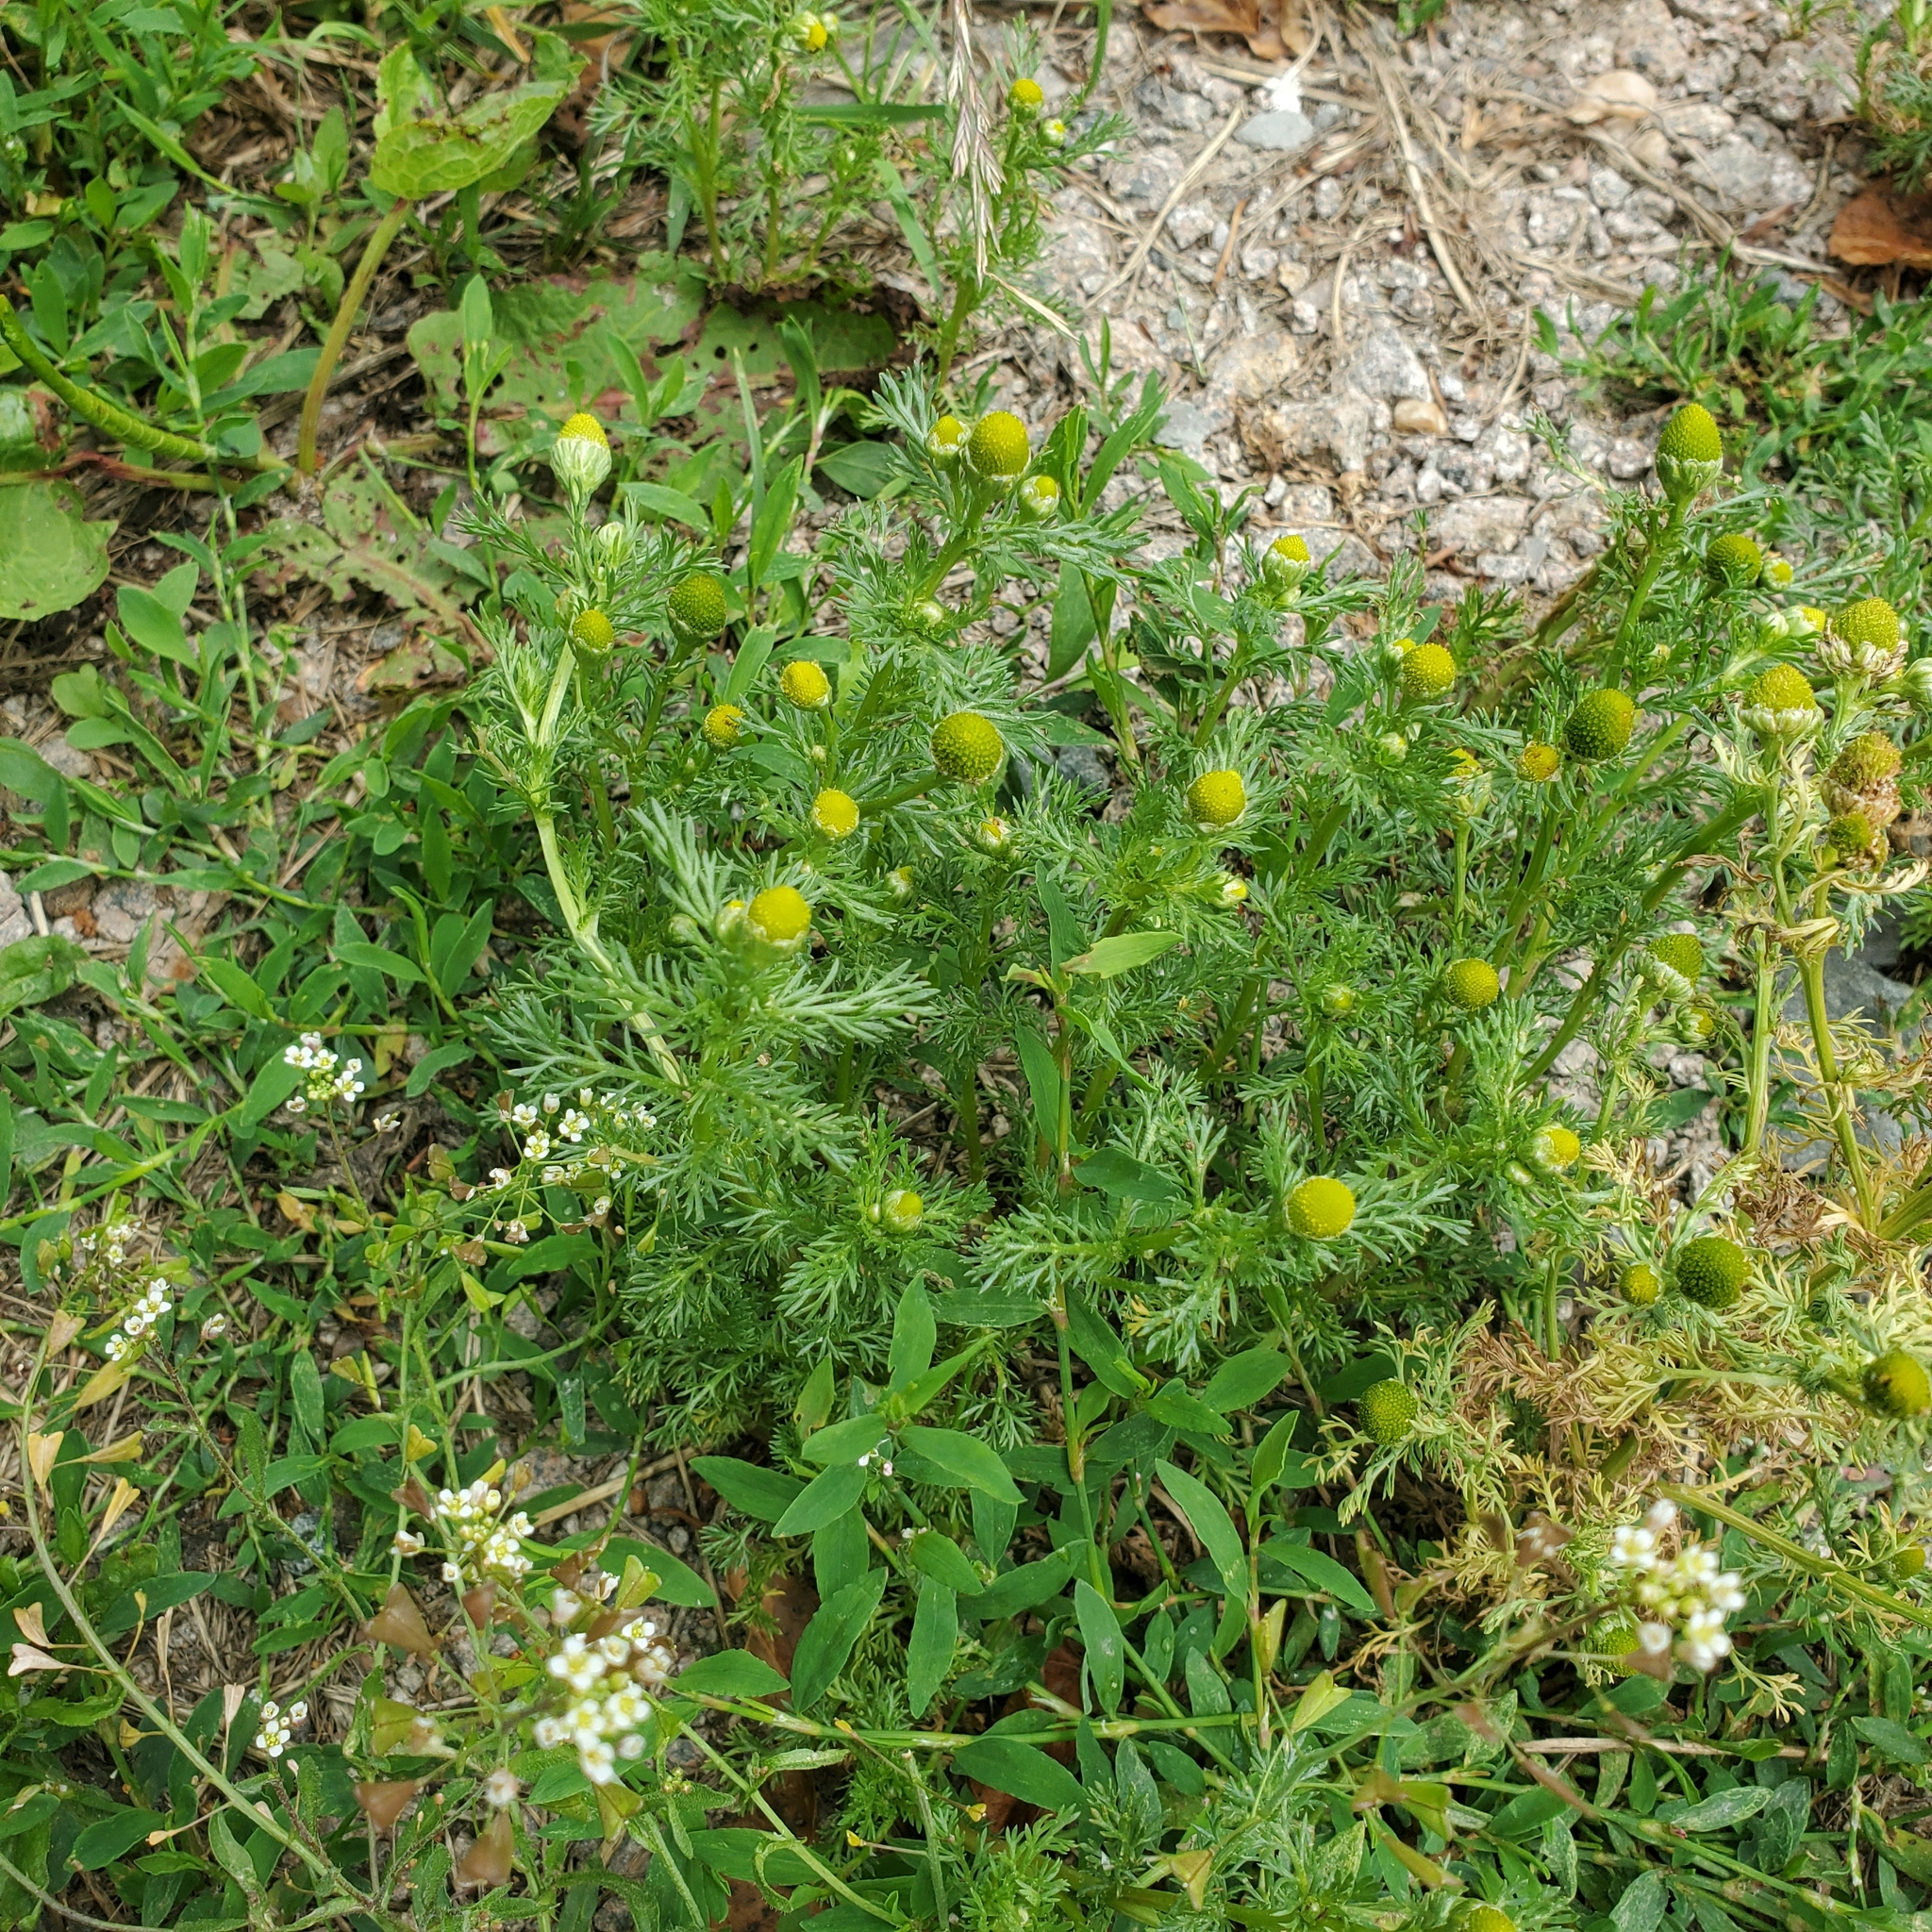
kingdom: Plantae
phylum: Tracheophyta
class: Magnoliopsida
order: Asterales
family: Asteraceae
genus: Matricaria
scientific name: Matricaria discoidea
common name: Disc mayweed
